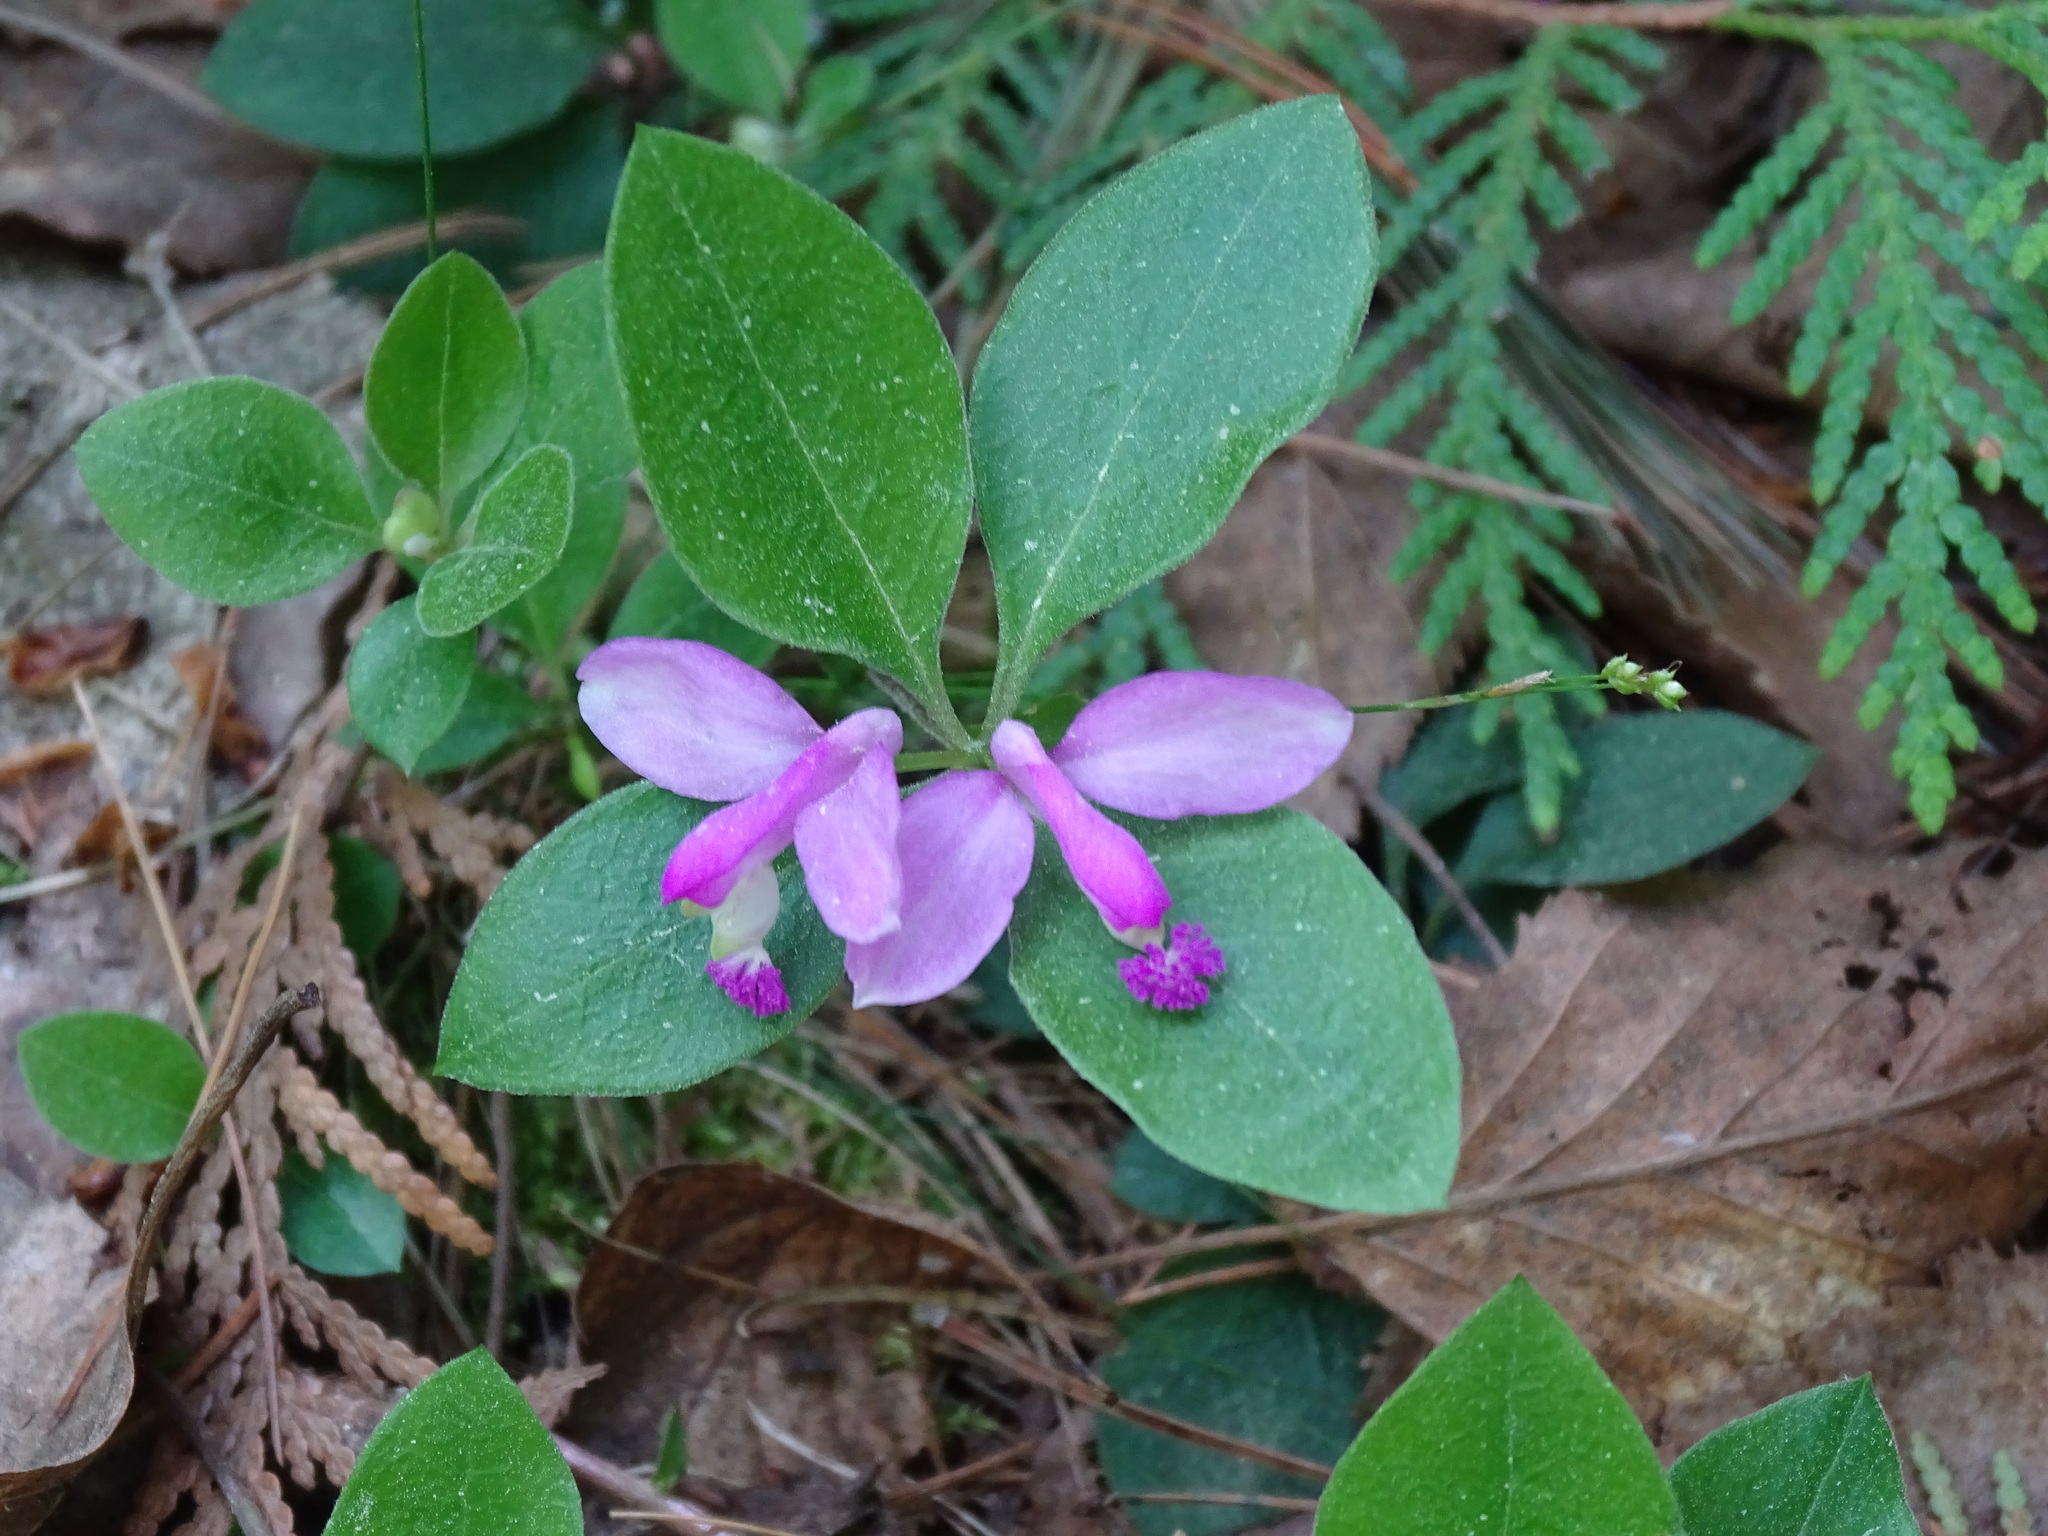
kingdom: Plantae
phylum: Tracheophyta
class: Magnoliopsida
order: Fabales
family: Polygalaceae
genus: Polygaloides
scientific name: Polygaloides paucifolia
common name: Bird-on-the-wing
